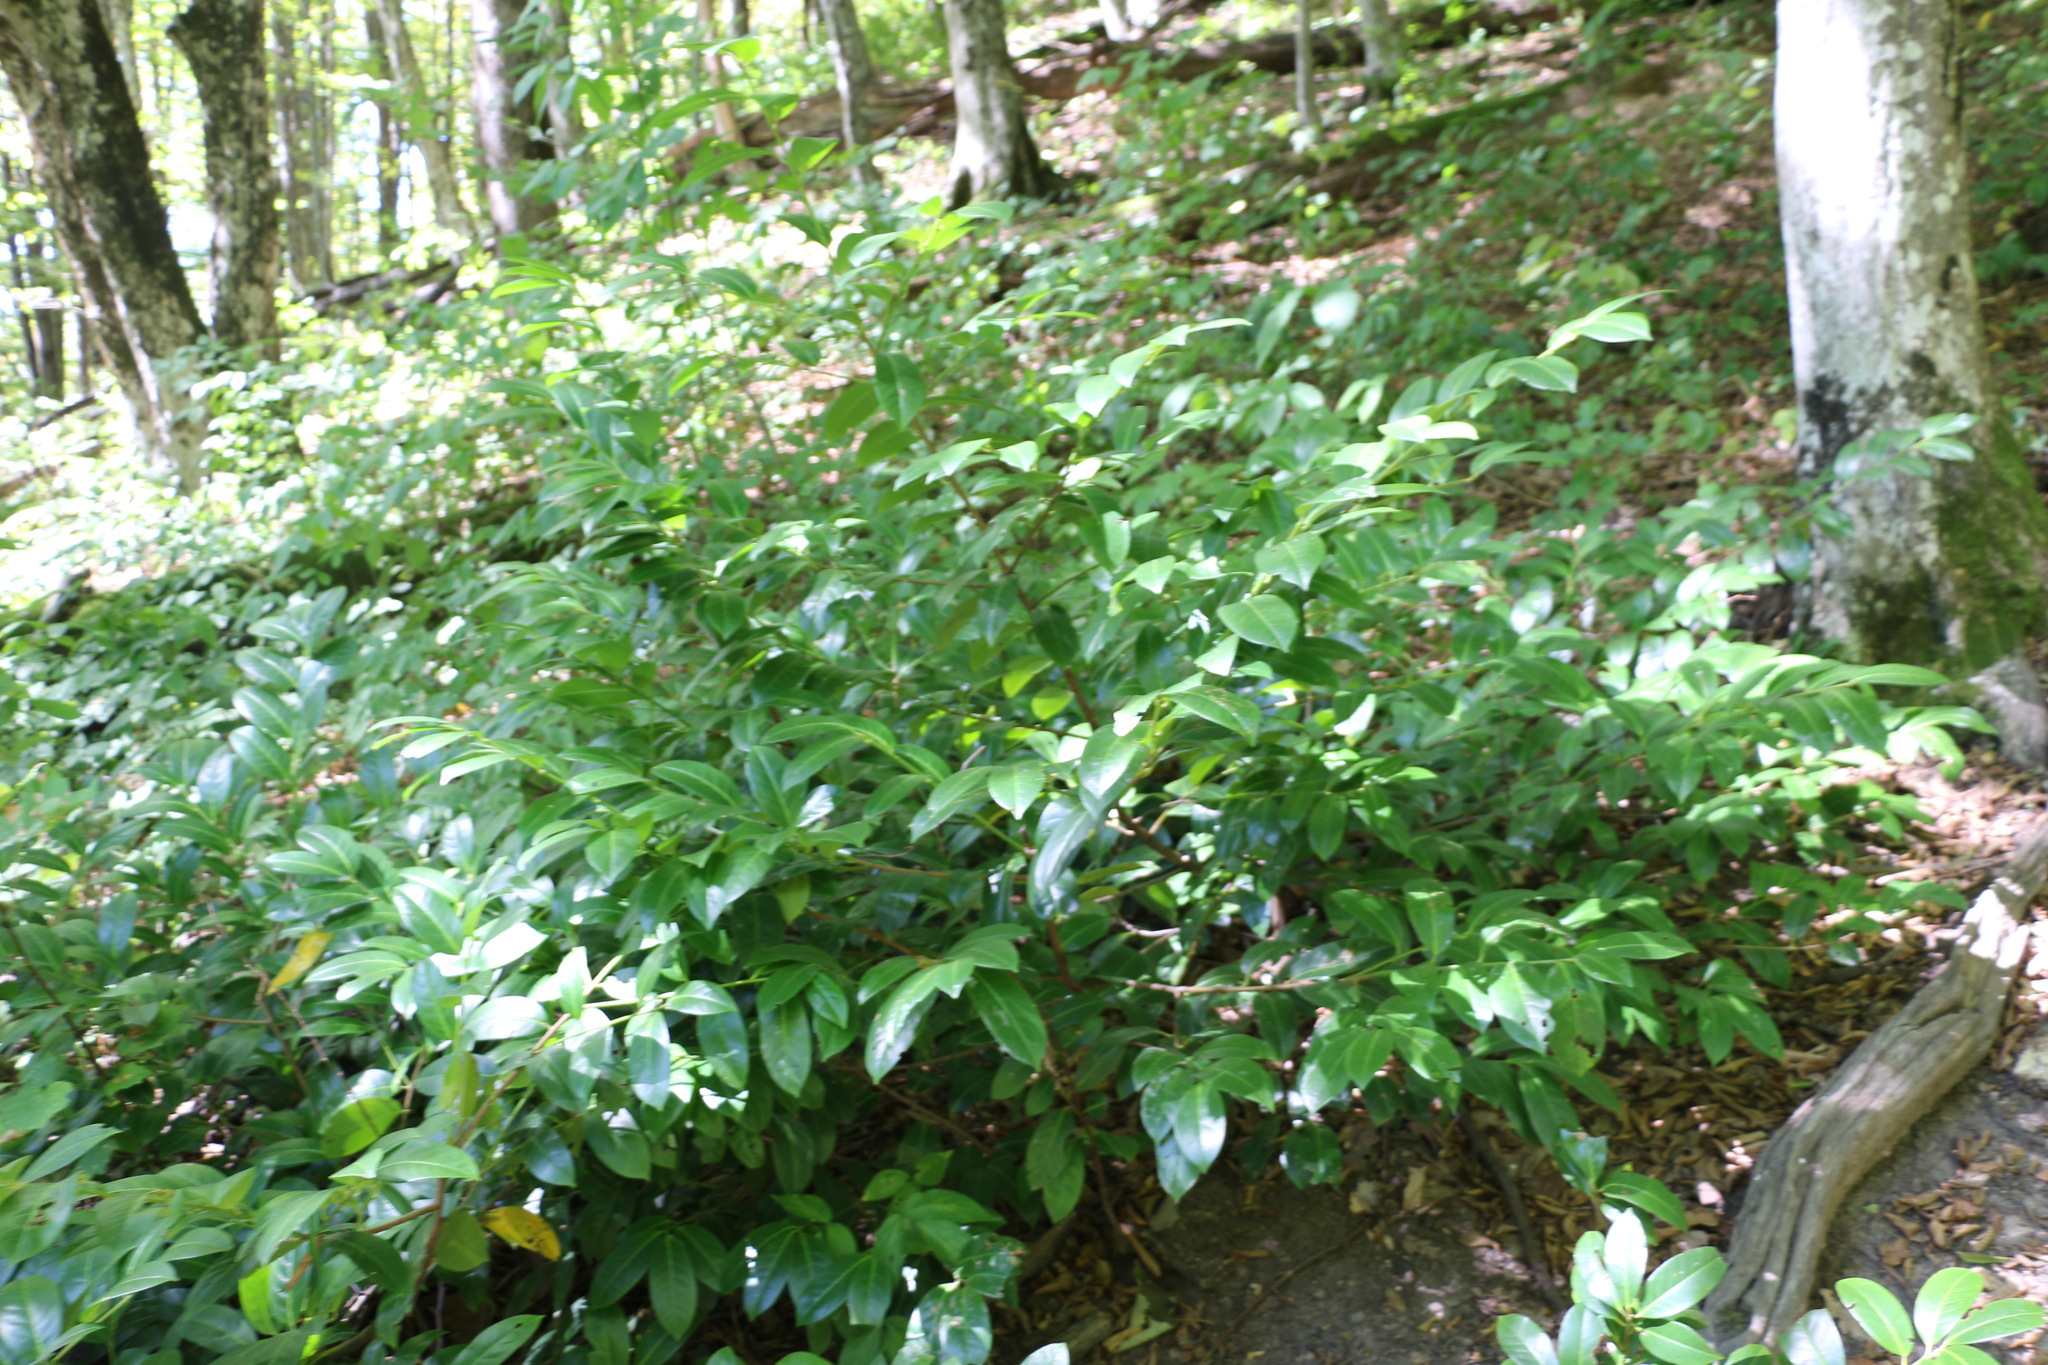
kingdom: Plantae
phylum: Tracheophyta
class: Magnoliopsida
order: Rosales
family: Rosaceae
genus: Prunus
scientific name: Prunus laurocerasus
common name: Cherry laurel
